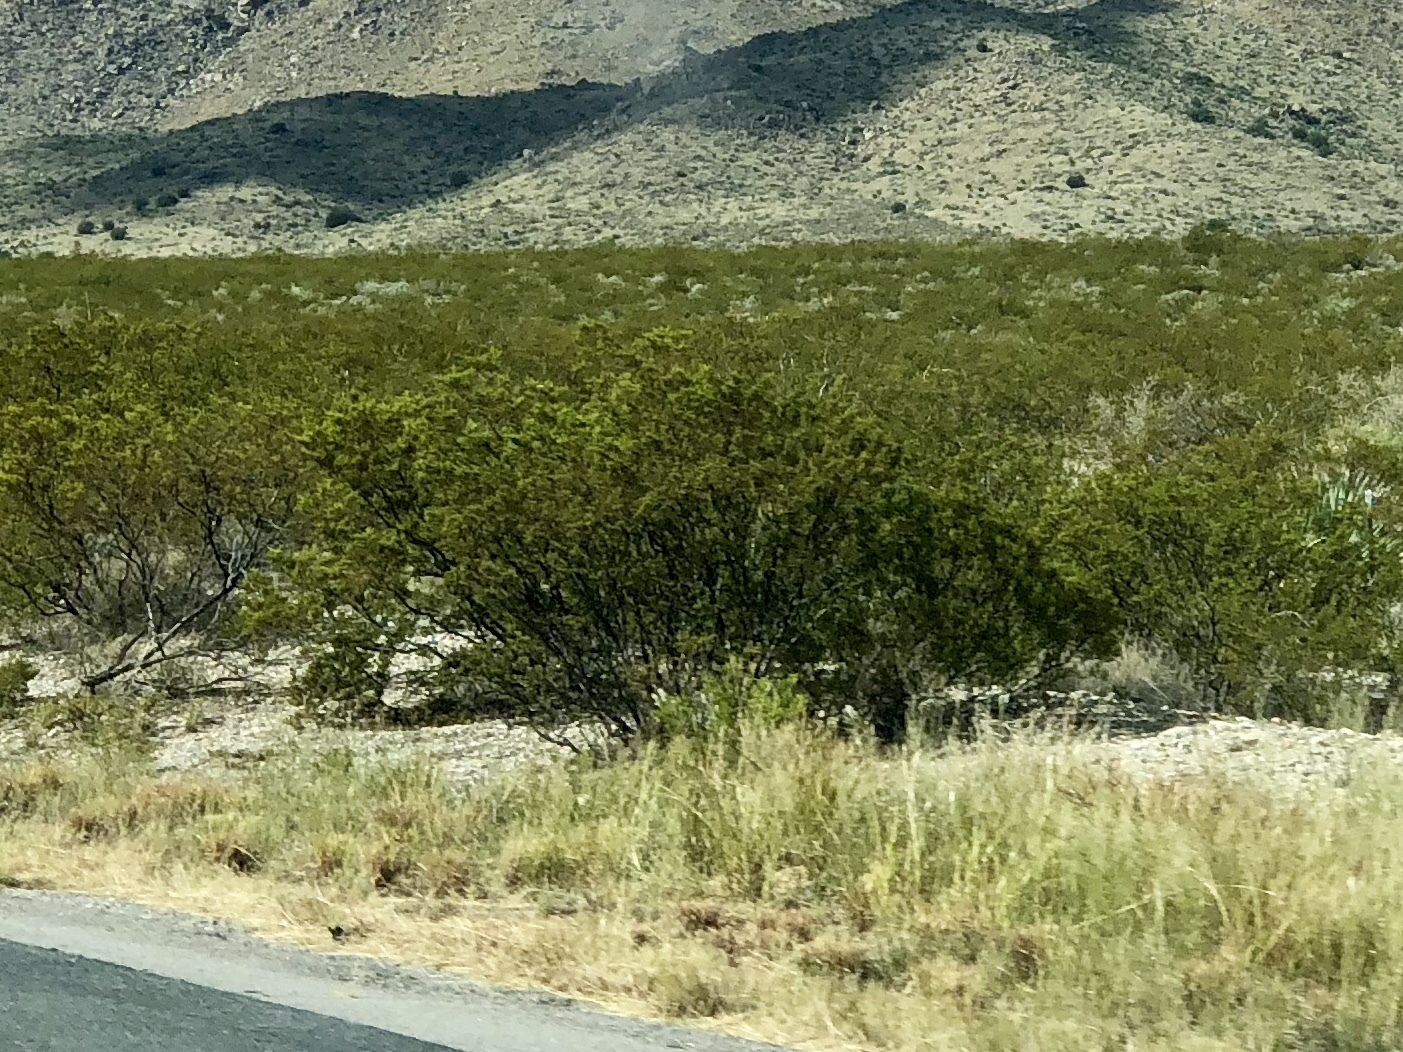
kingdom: Plantae
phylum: Tracheophyta
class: Magnoliopsida
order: Zygophyllales
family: Zygophyllaceae
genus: Larrea
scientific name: Larrea tridentata
